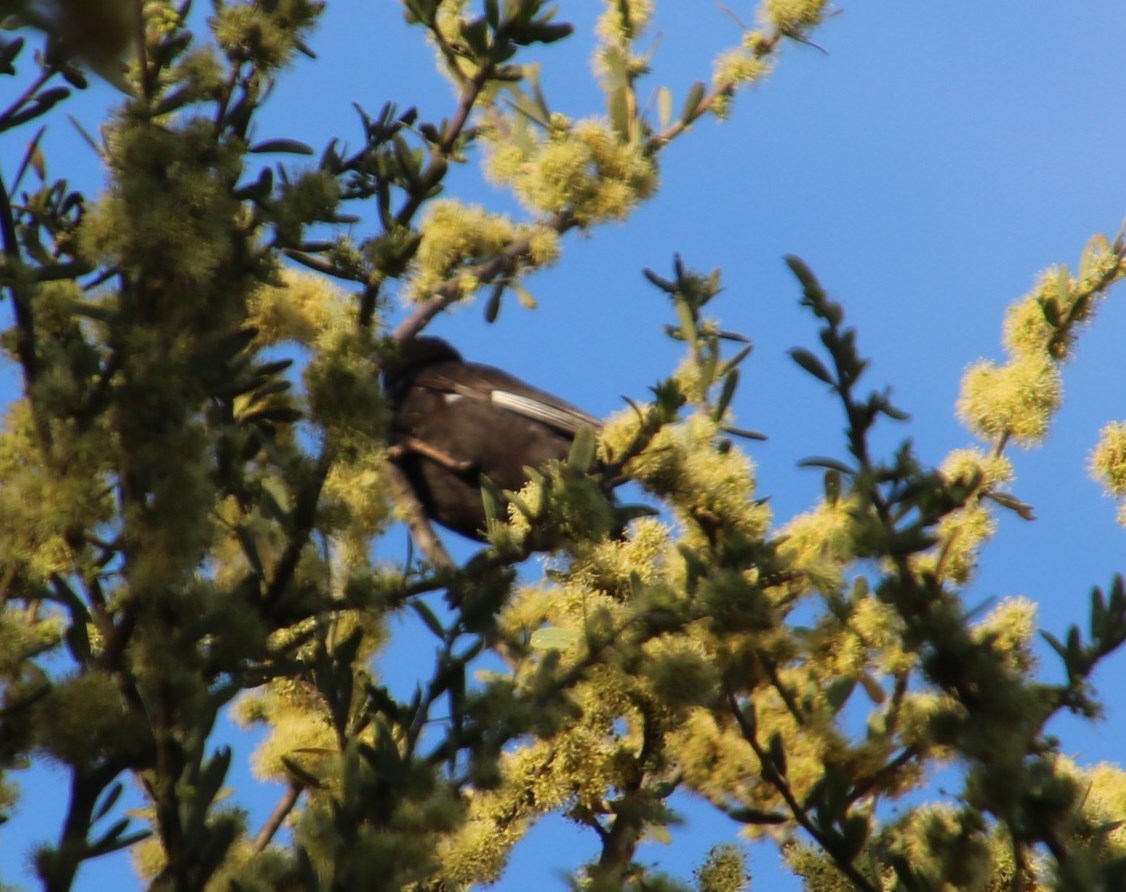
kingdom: Animalia
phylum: Chordata
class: Aves
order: Passeriformes
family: Paridae
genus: Parus
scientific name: Parus niger
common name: Southern black tit
